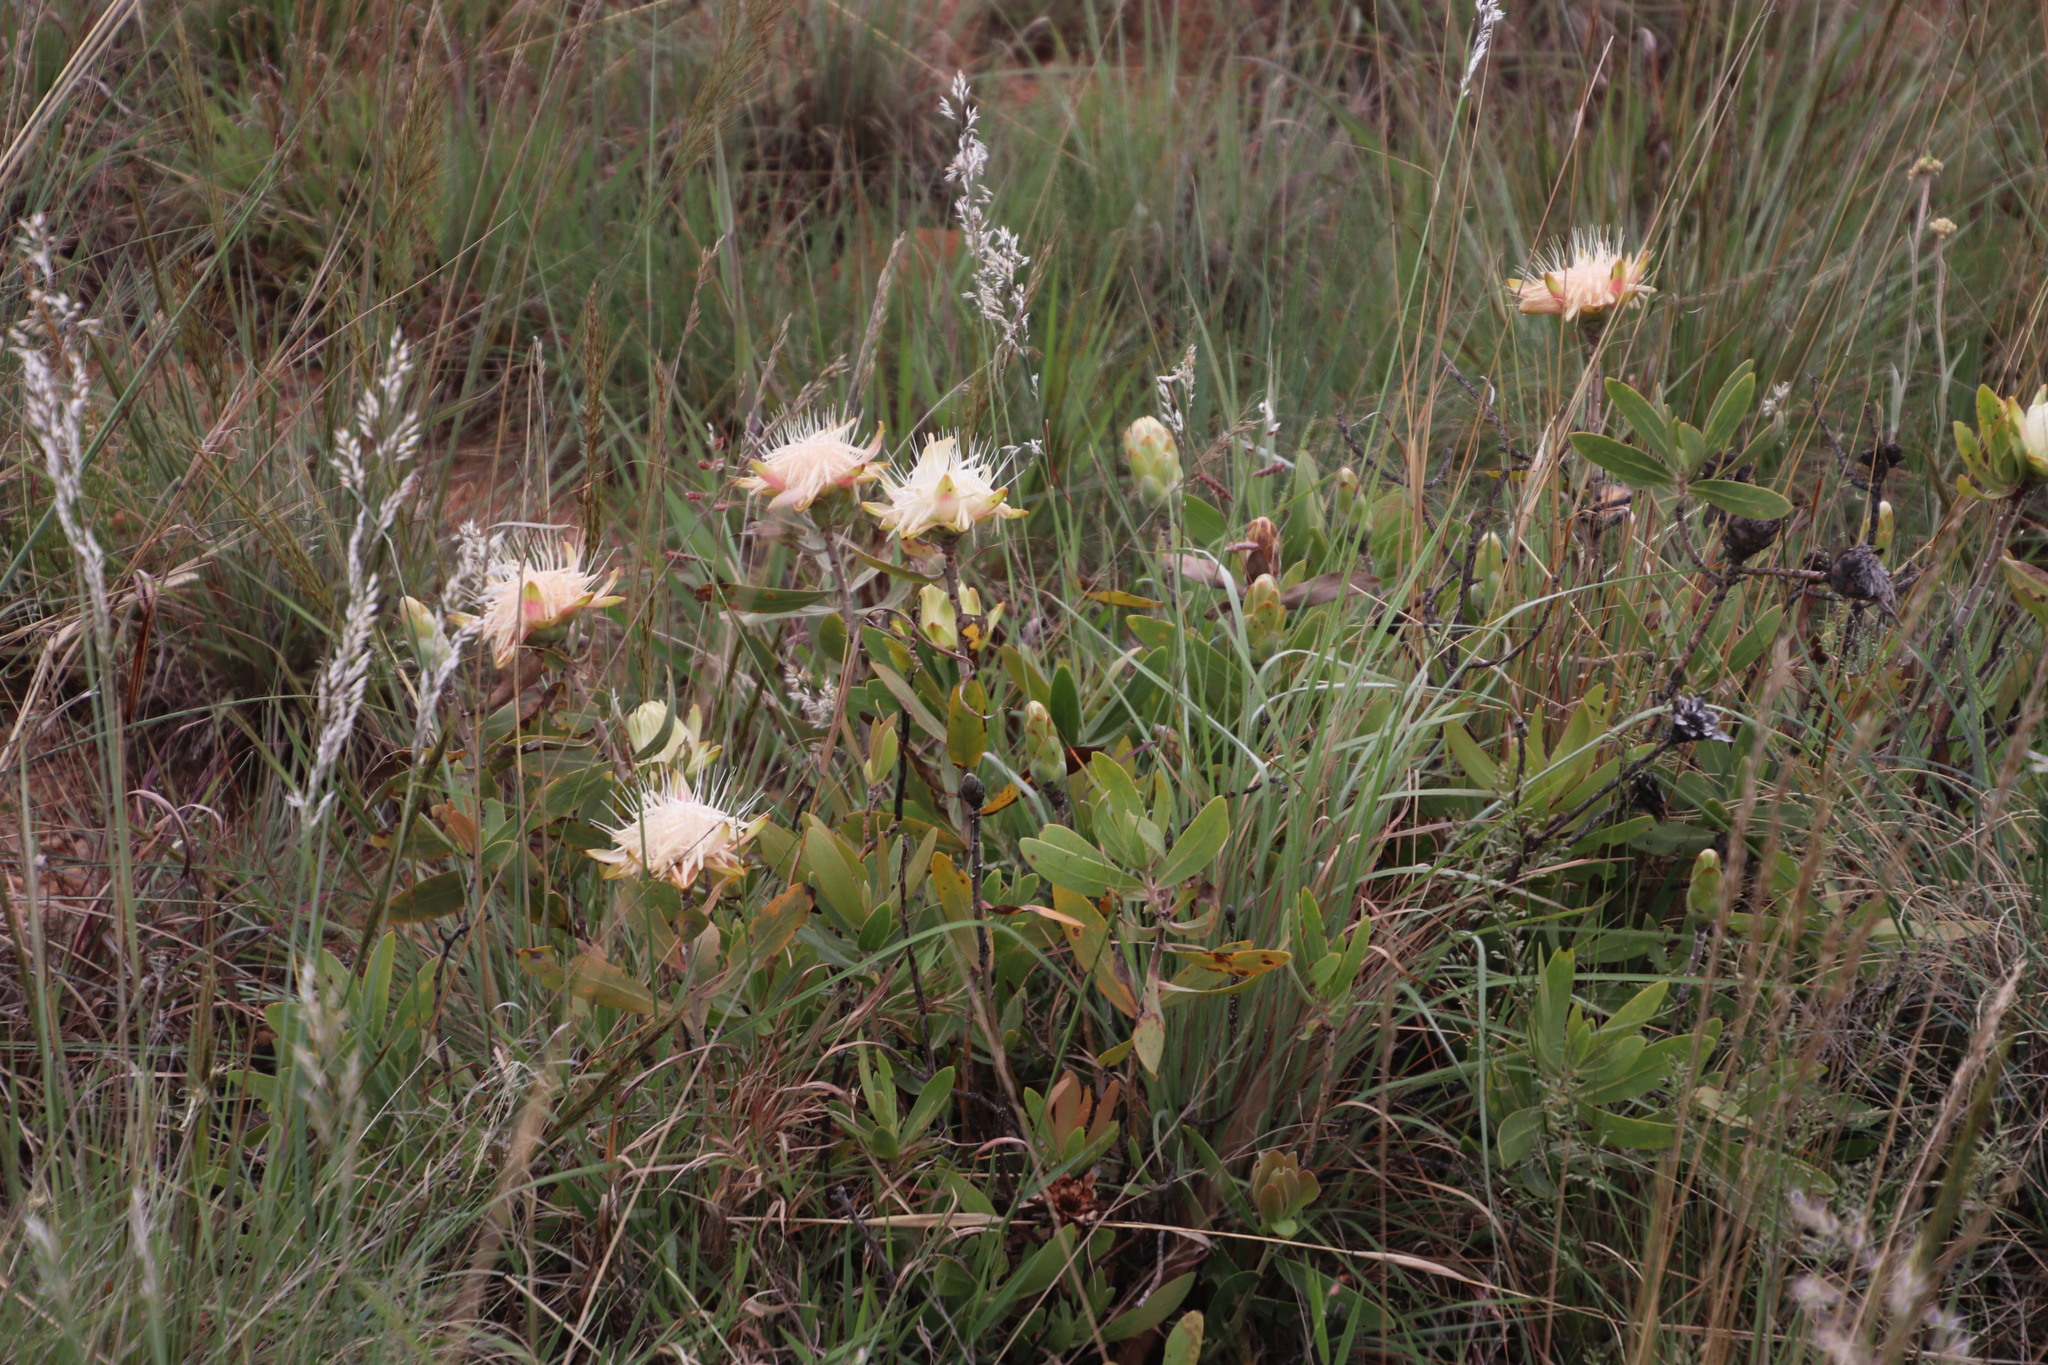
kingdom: Plantae
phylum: Tracheophyta
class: Magnoliopsida
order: Proteales
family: Proteaceae
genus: Protea
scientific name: Protea welwitschii
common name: Cluster-head protea
